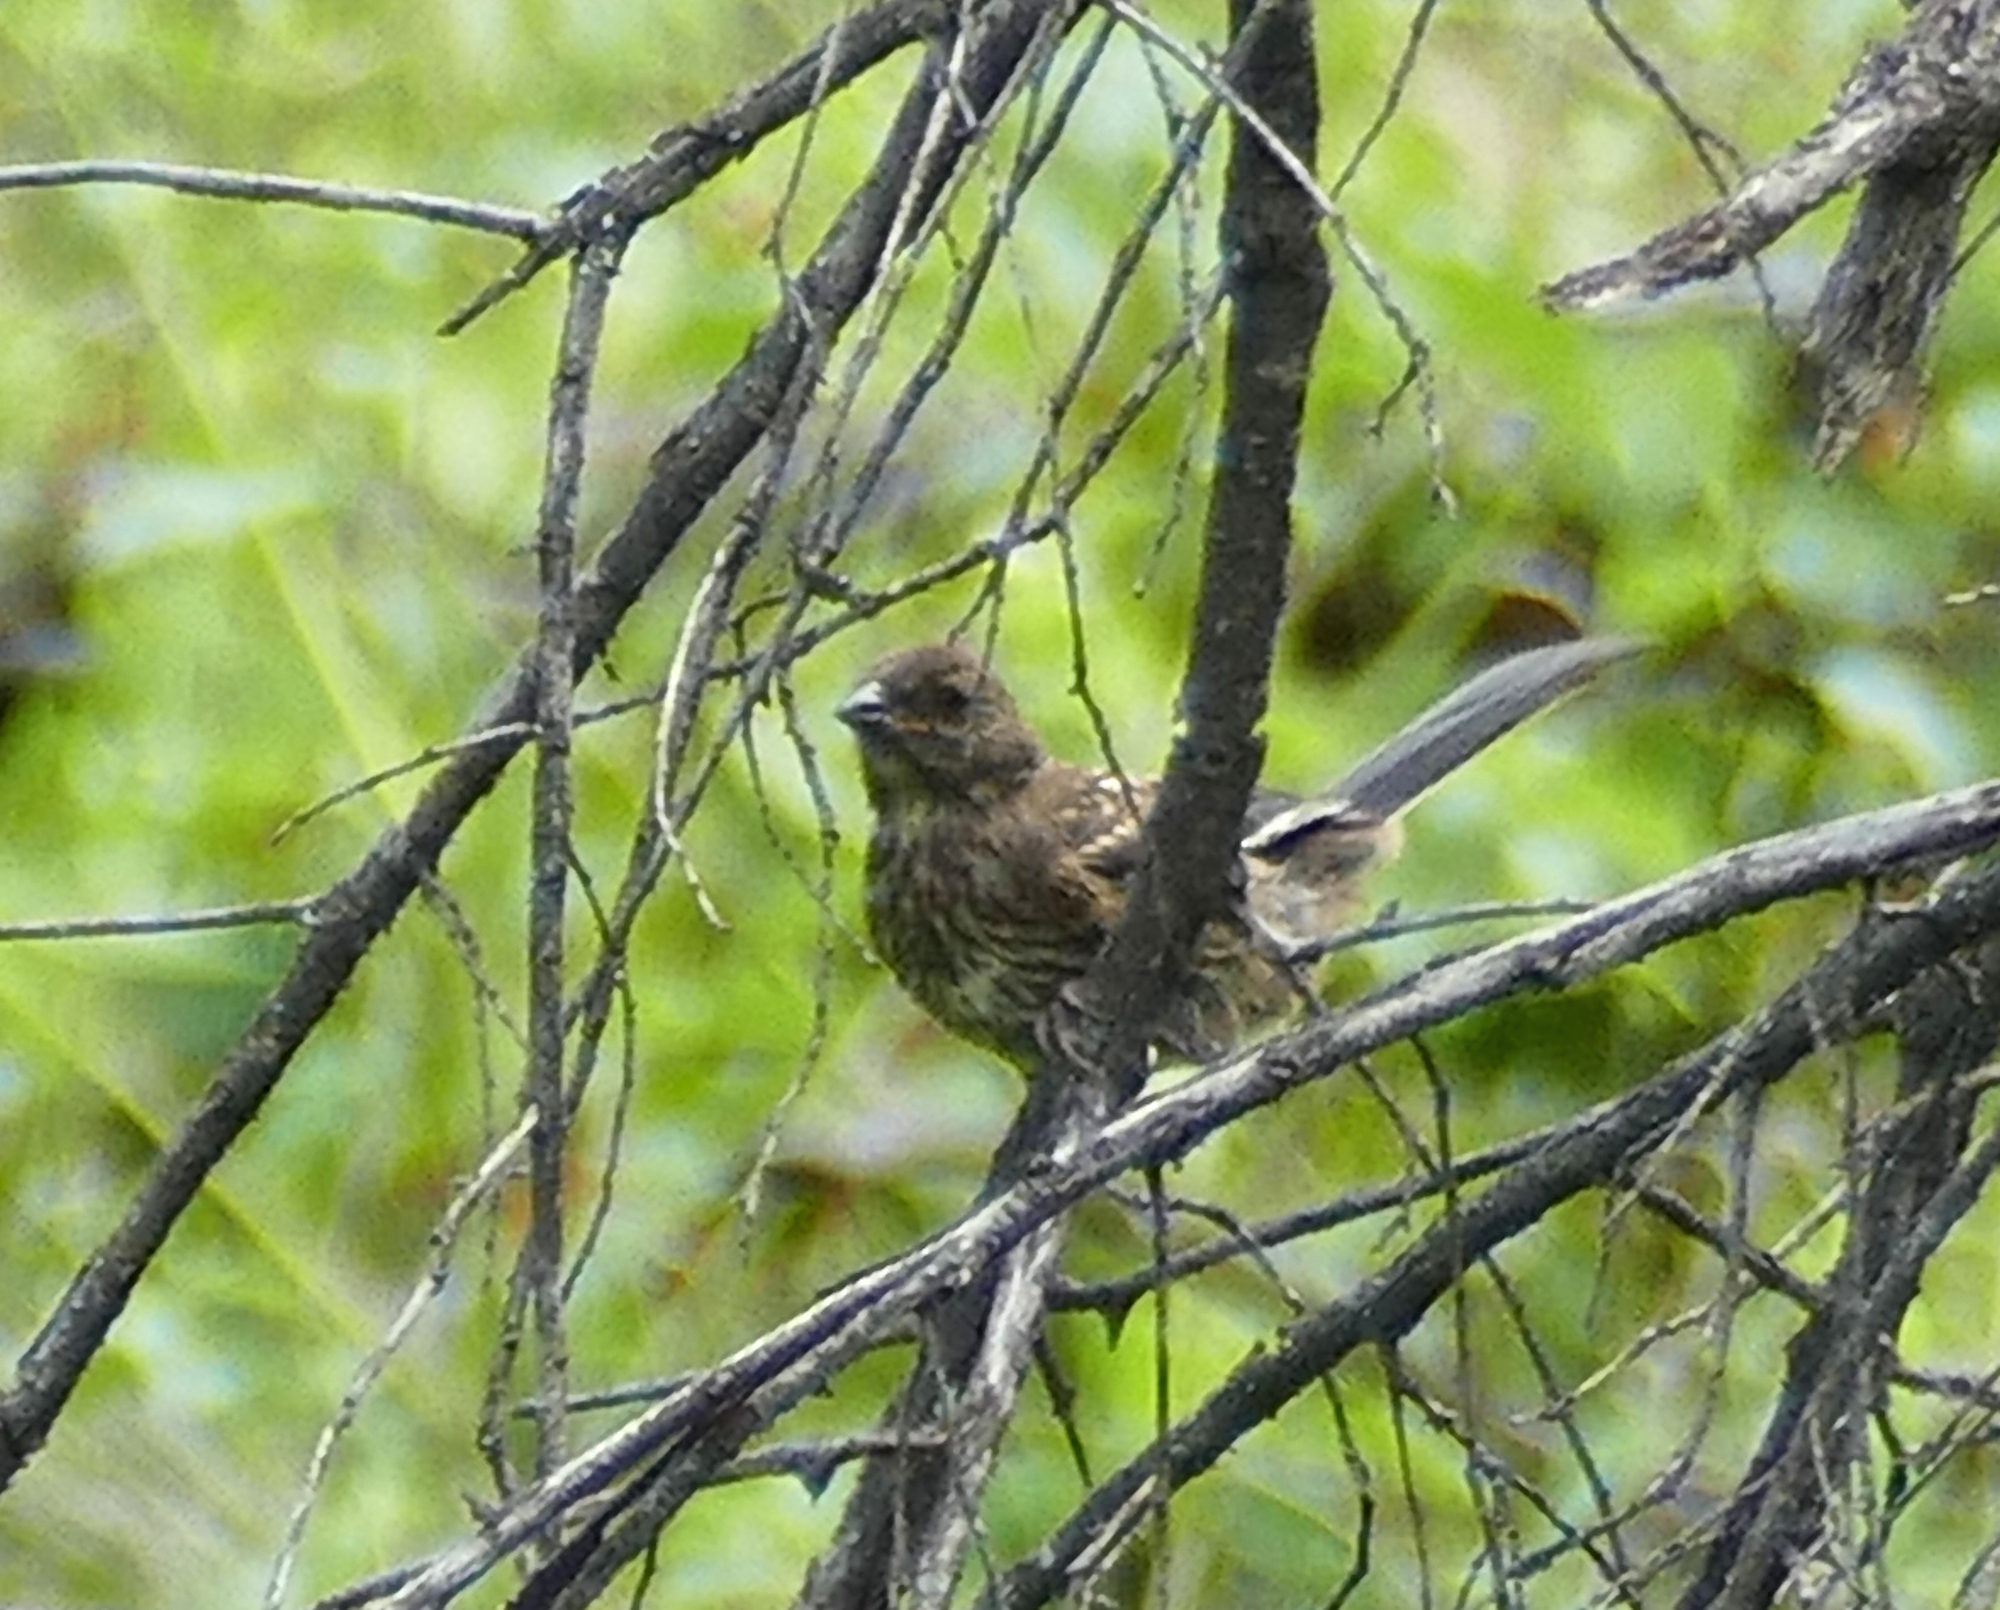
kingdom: Animalia
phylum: Chordata
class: Aves
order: Passeriformes
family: Passerellidae
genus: Pipilo
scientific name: Pipilo maculatus
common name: Spotted towhee
